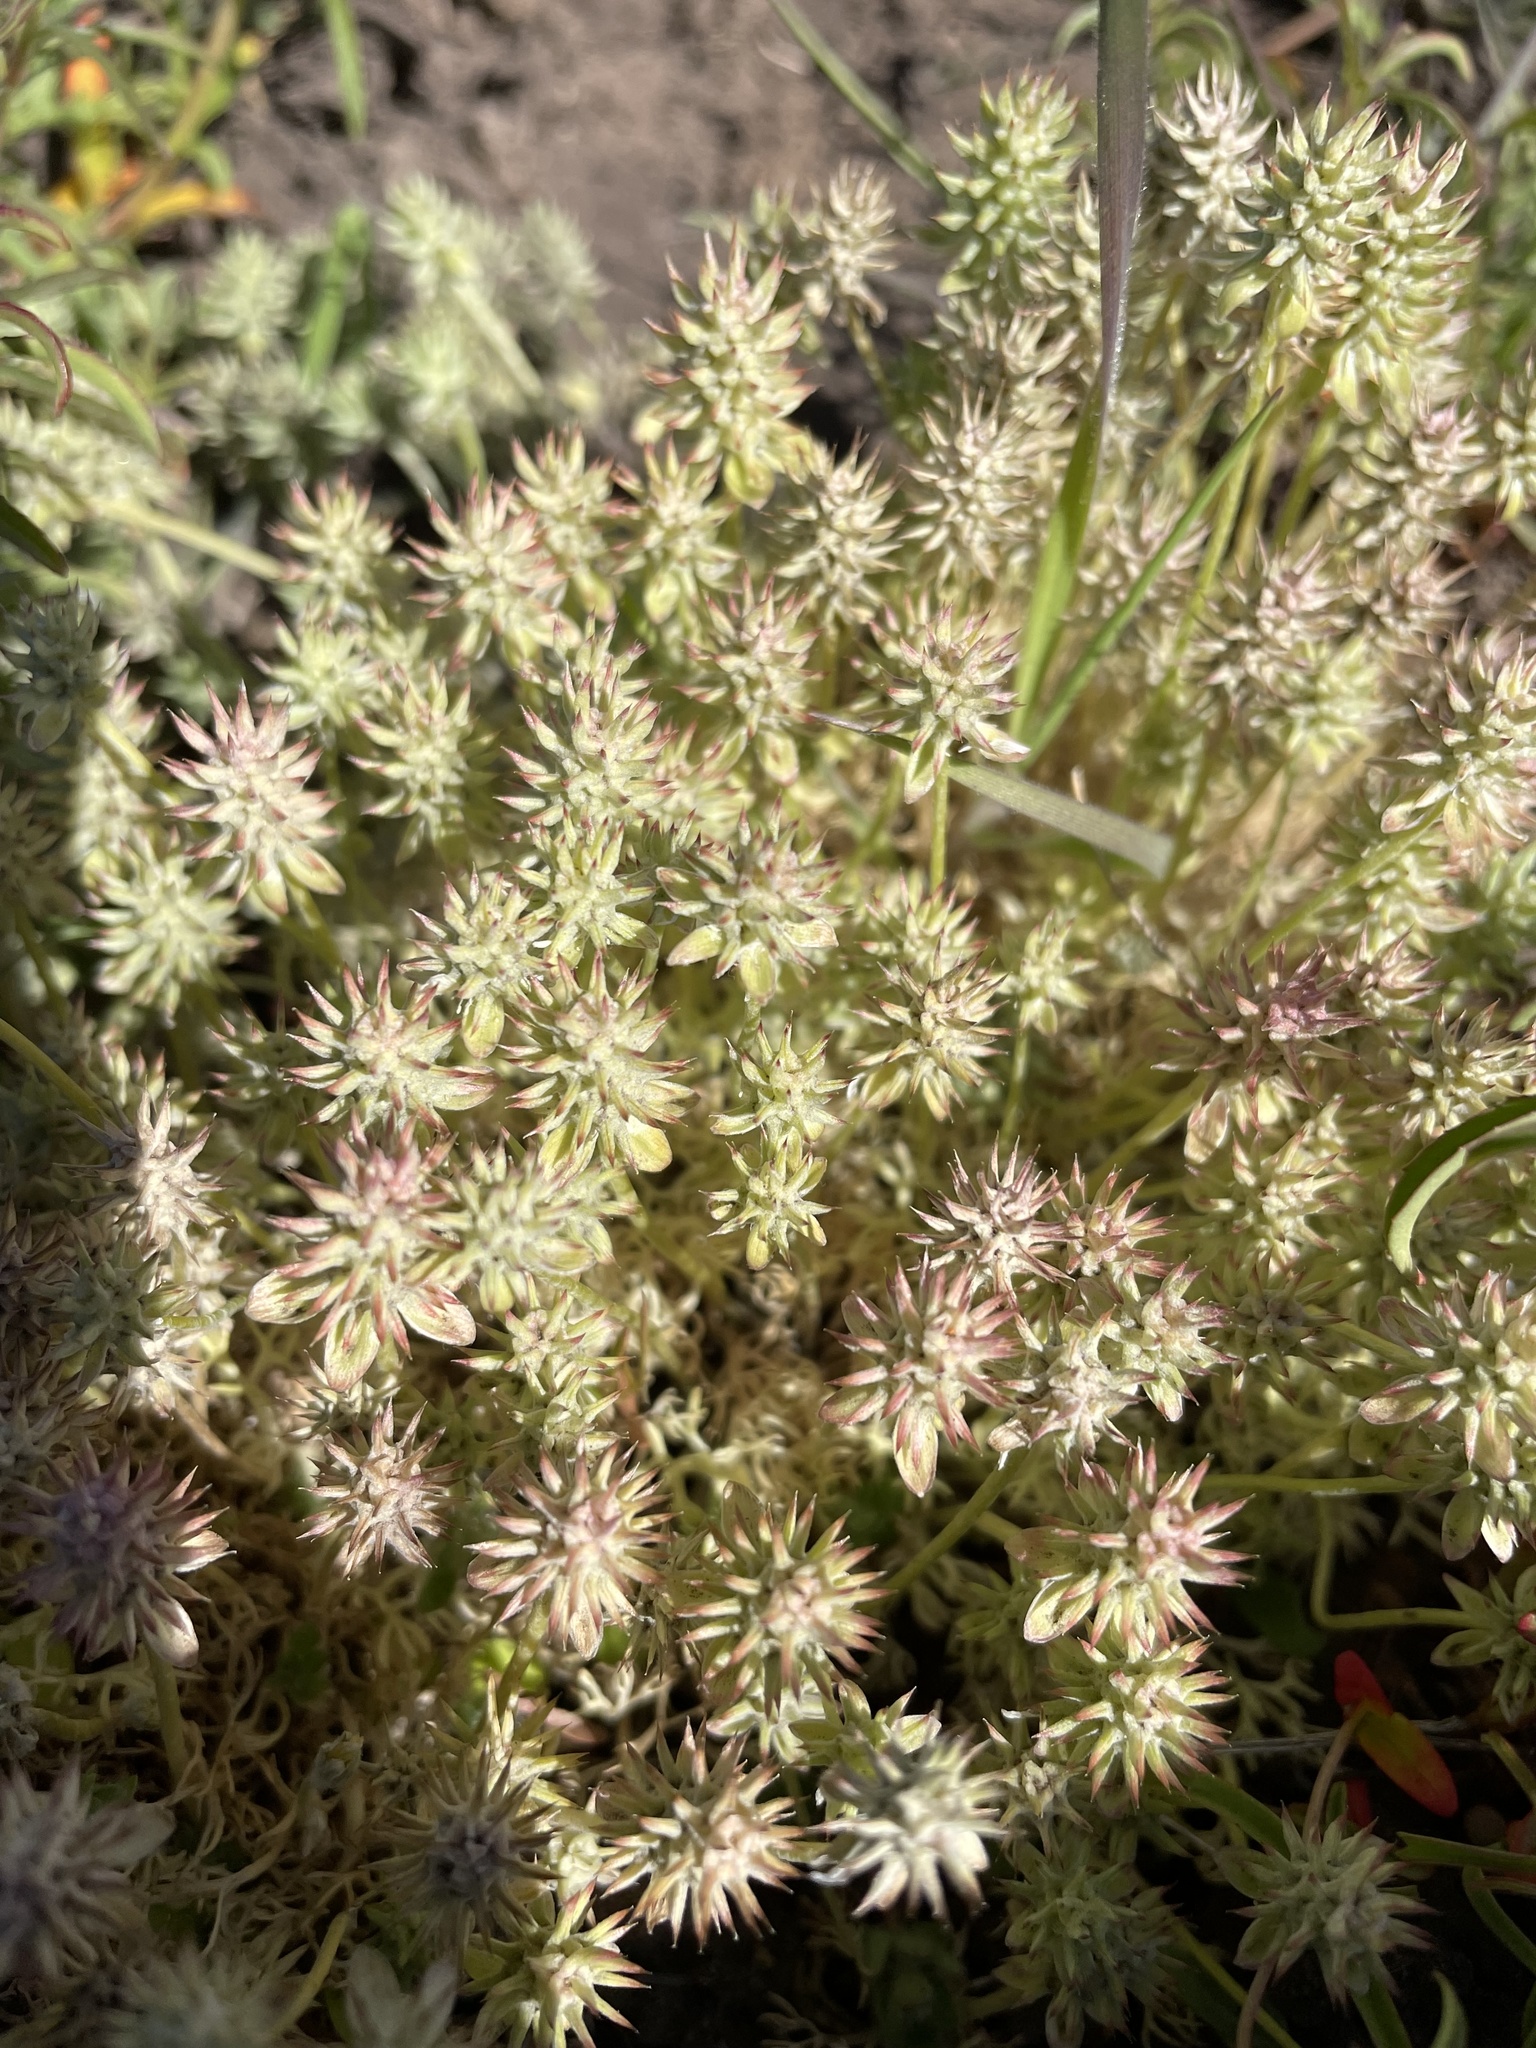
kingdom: Plantae
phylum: Tracheophyta
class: Magnoliopsida
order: Ranunculales
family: Ranunculaceae
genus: Ceratocephala
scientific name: Ceratocephala orthoceras
